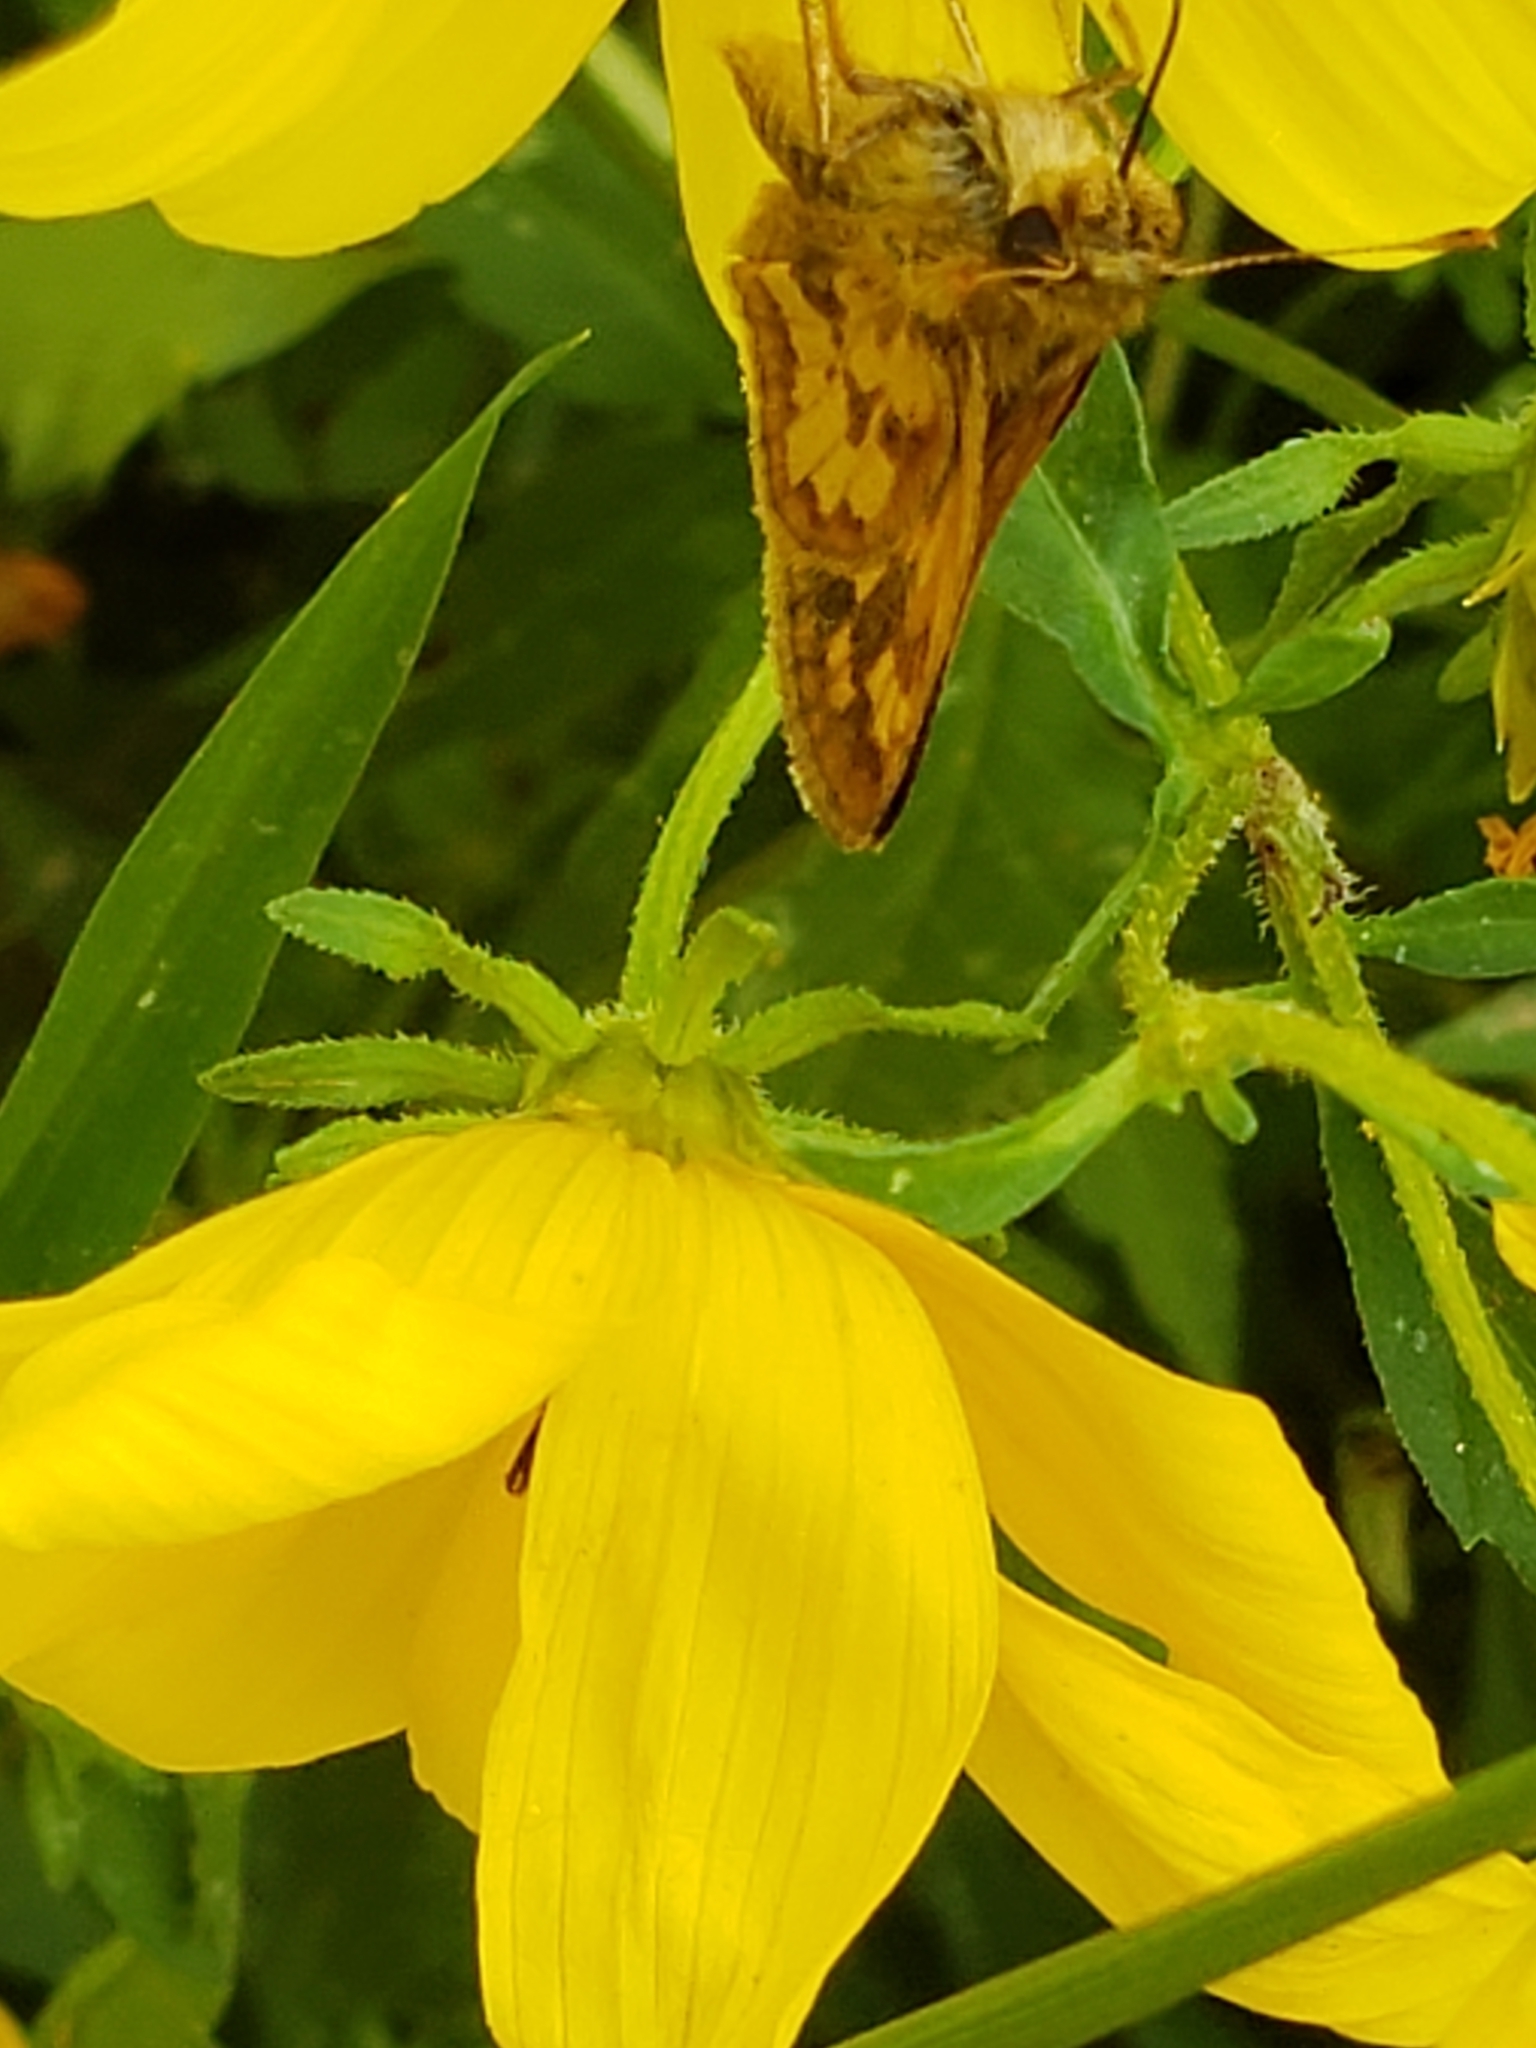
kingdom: Animalia
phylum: Arthropoda
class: Insecta
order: Lepidoptera
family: Hesperiidae
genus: Polites
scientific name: Polites coras
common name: Peck's skipper
